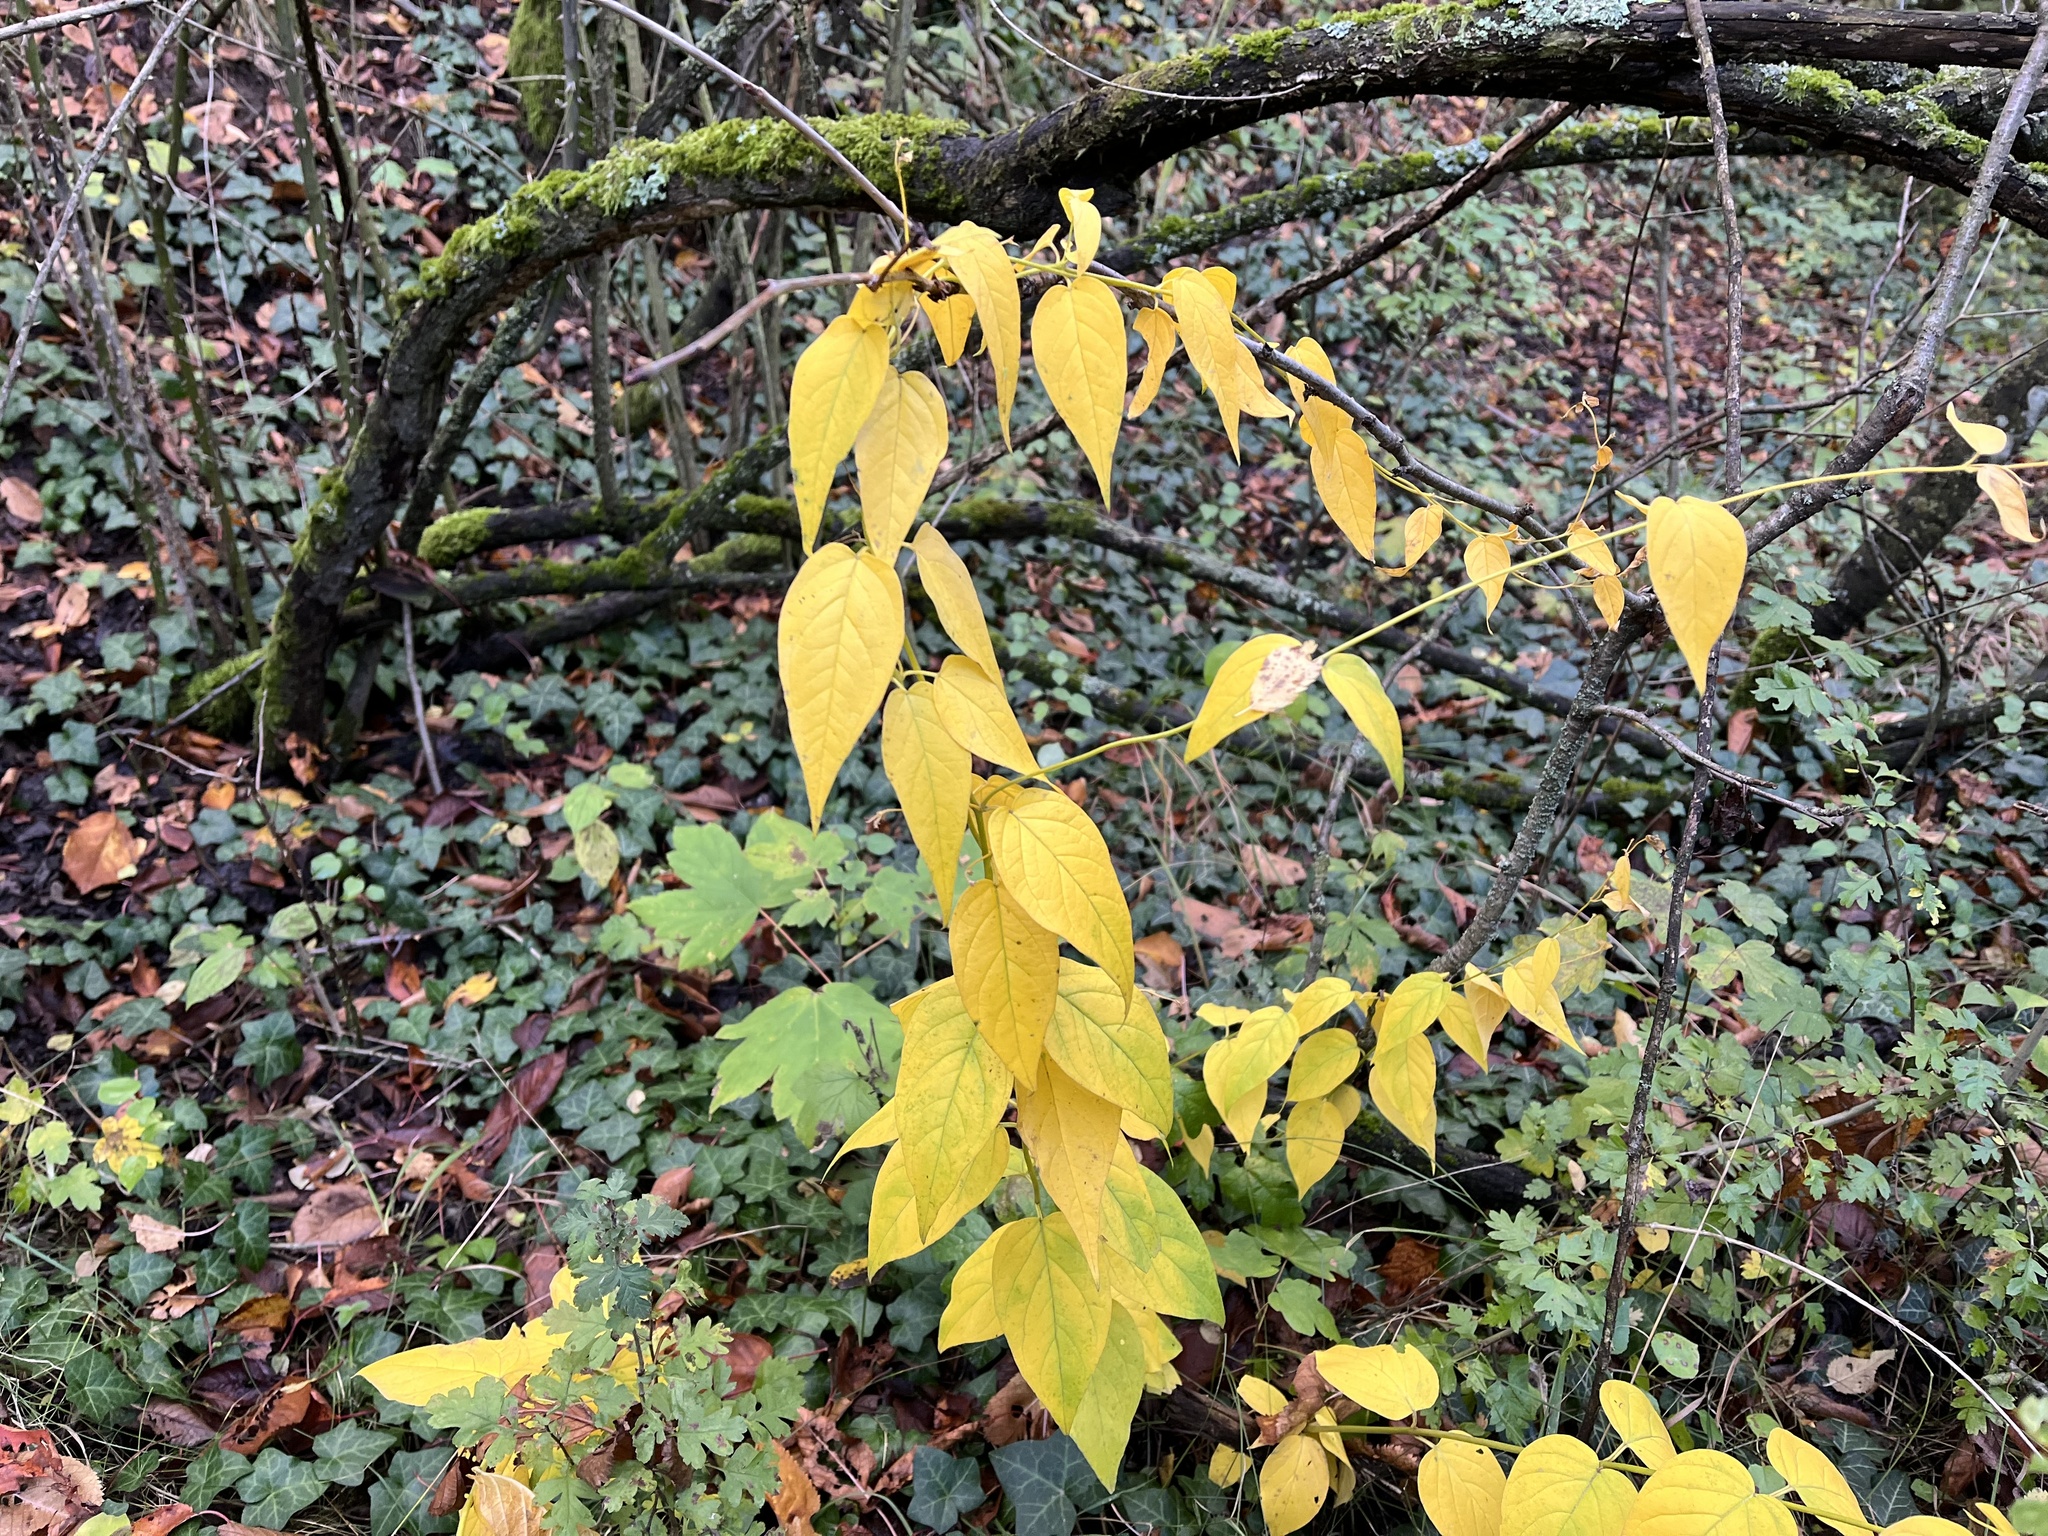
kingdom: Plantae
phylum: Tracheophyta
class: Magnoliopsida
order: Gentianales
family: Apocynaceae
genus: Vincetoxicum
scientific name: Vincetoxicum hirundinaria
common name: White swallowwort
